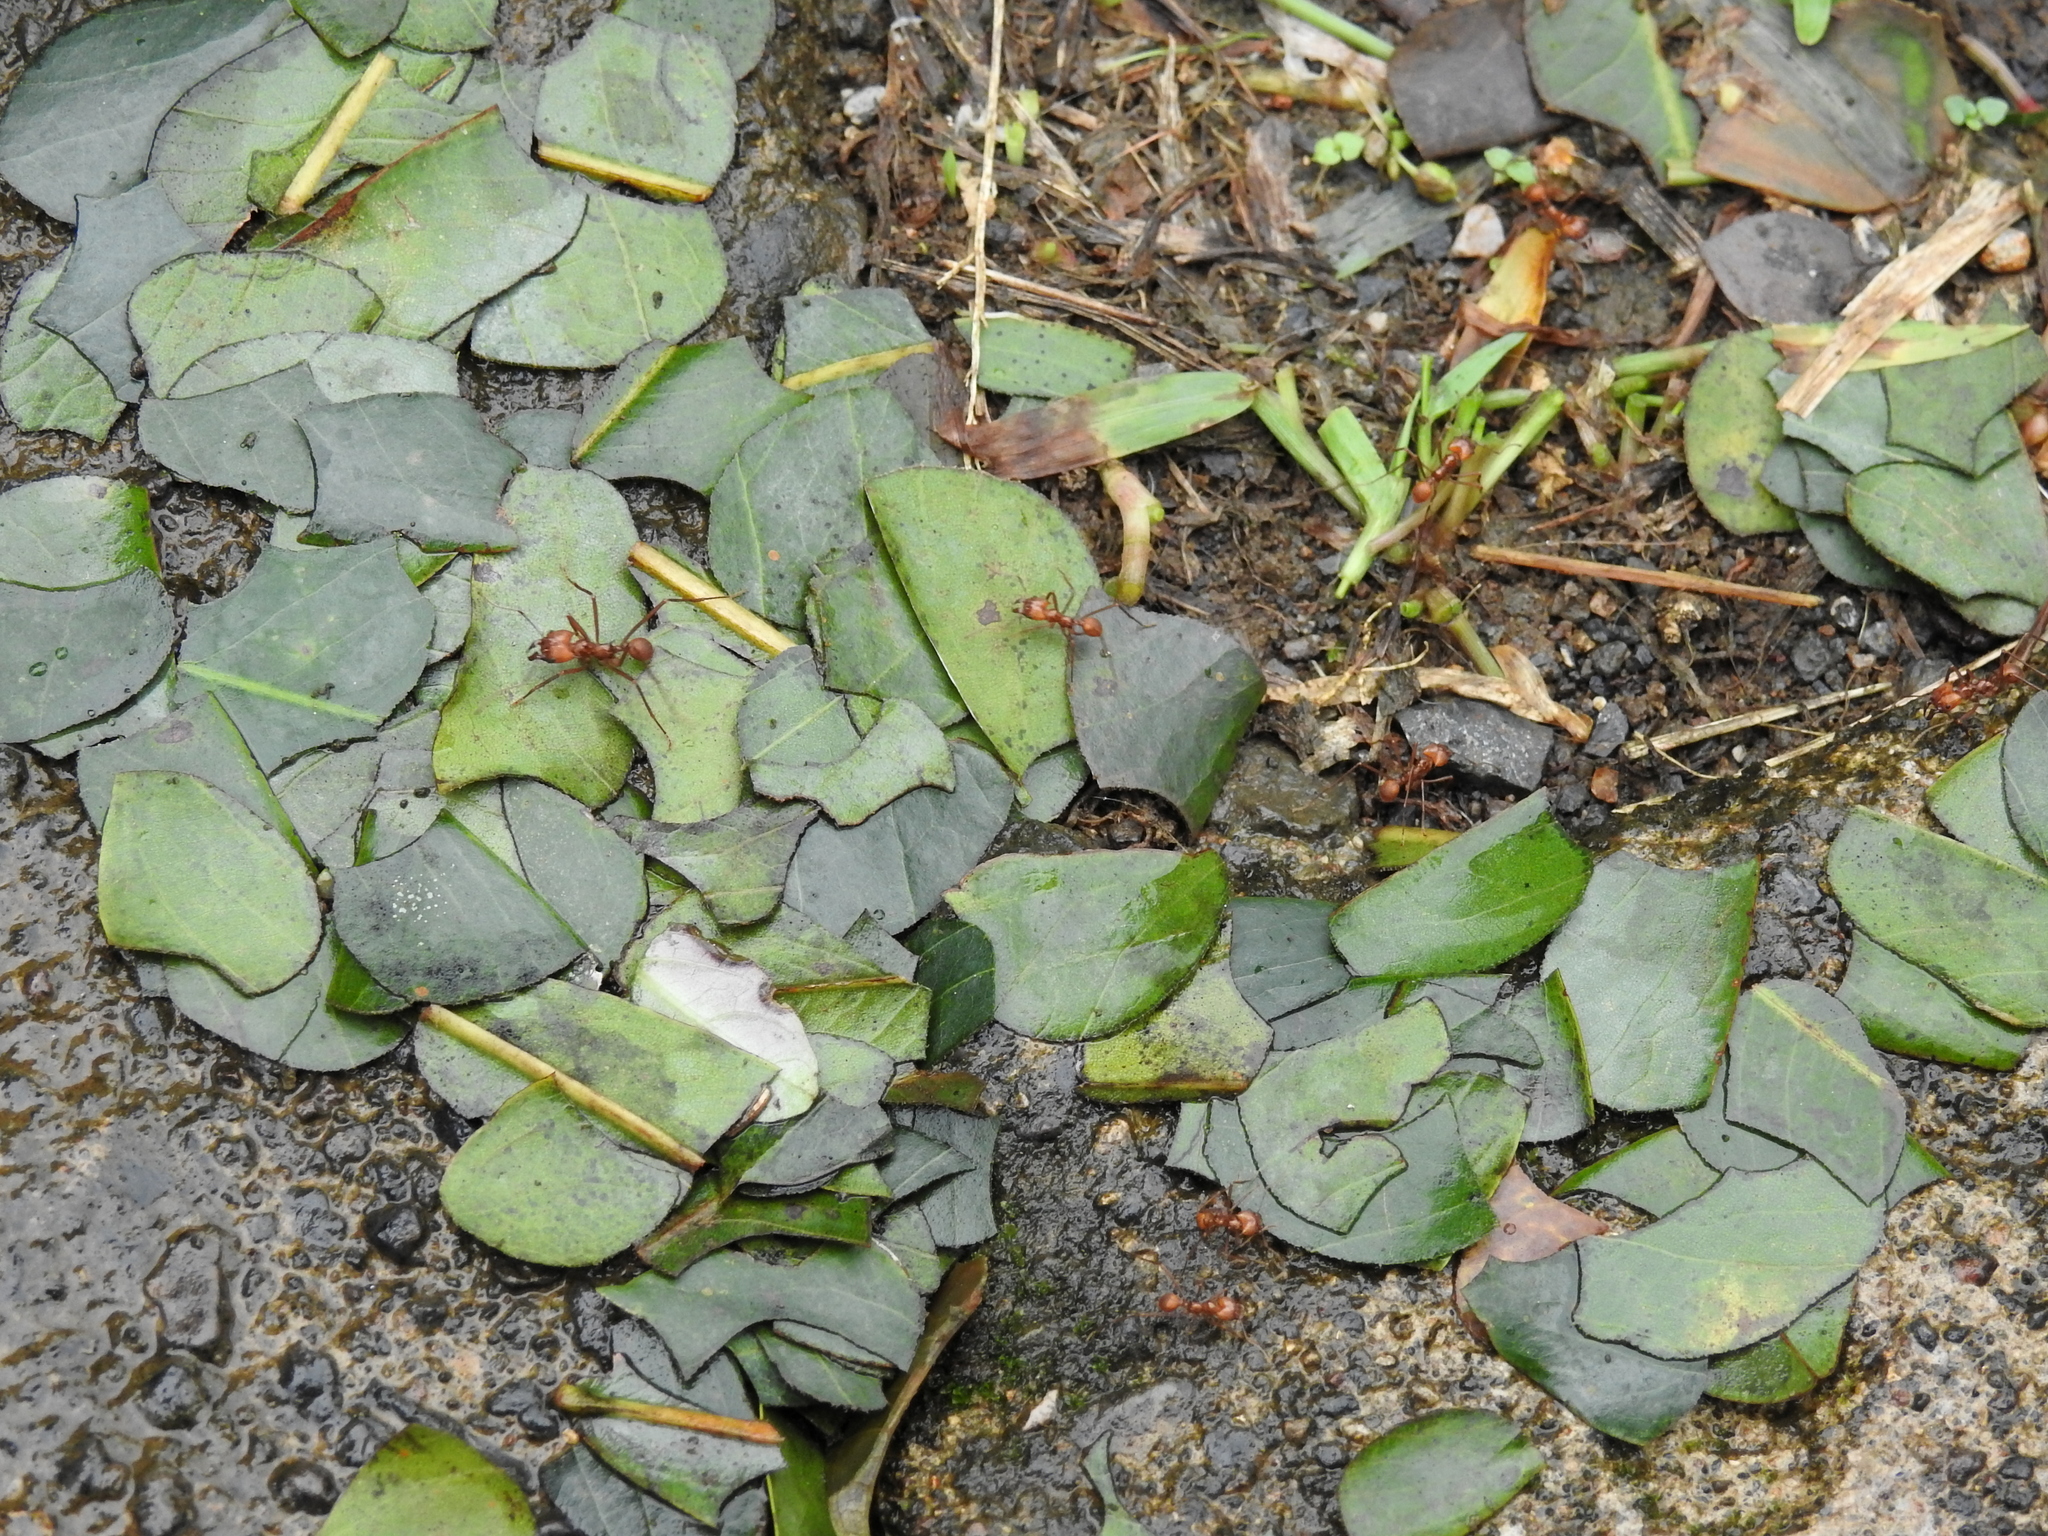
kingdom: Animalia
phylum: Arthropoda
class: Insecta
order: Hymenoptera
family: Formicidae
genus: Atta
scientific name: Atta cephalotes
